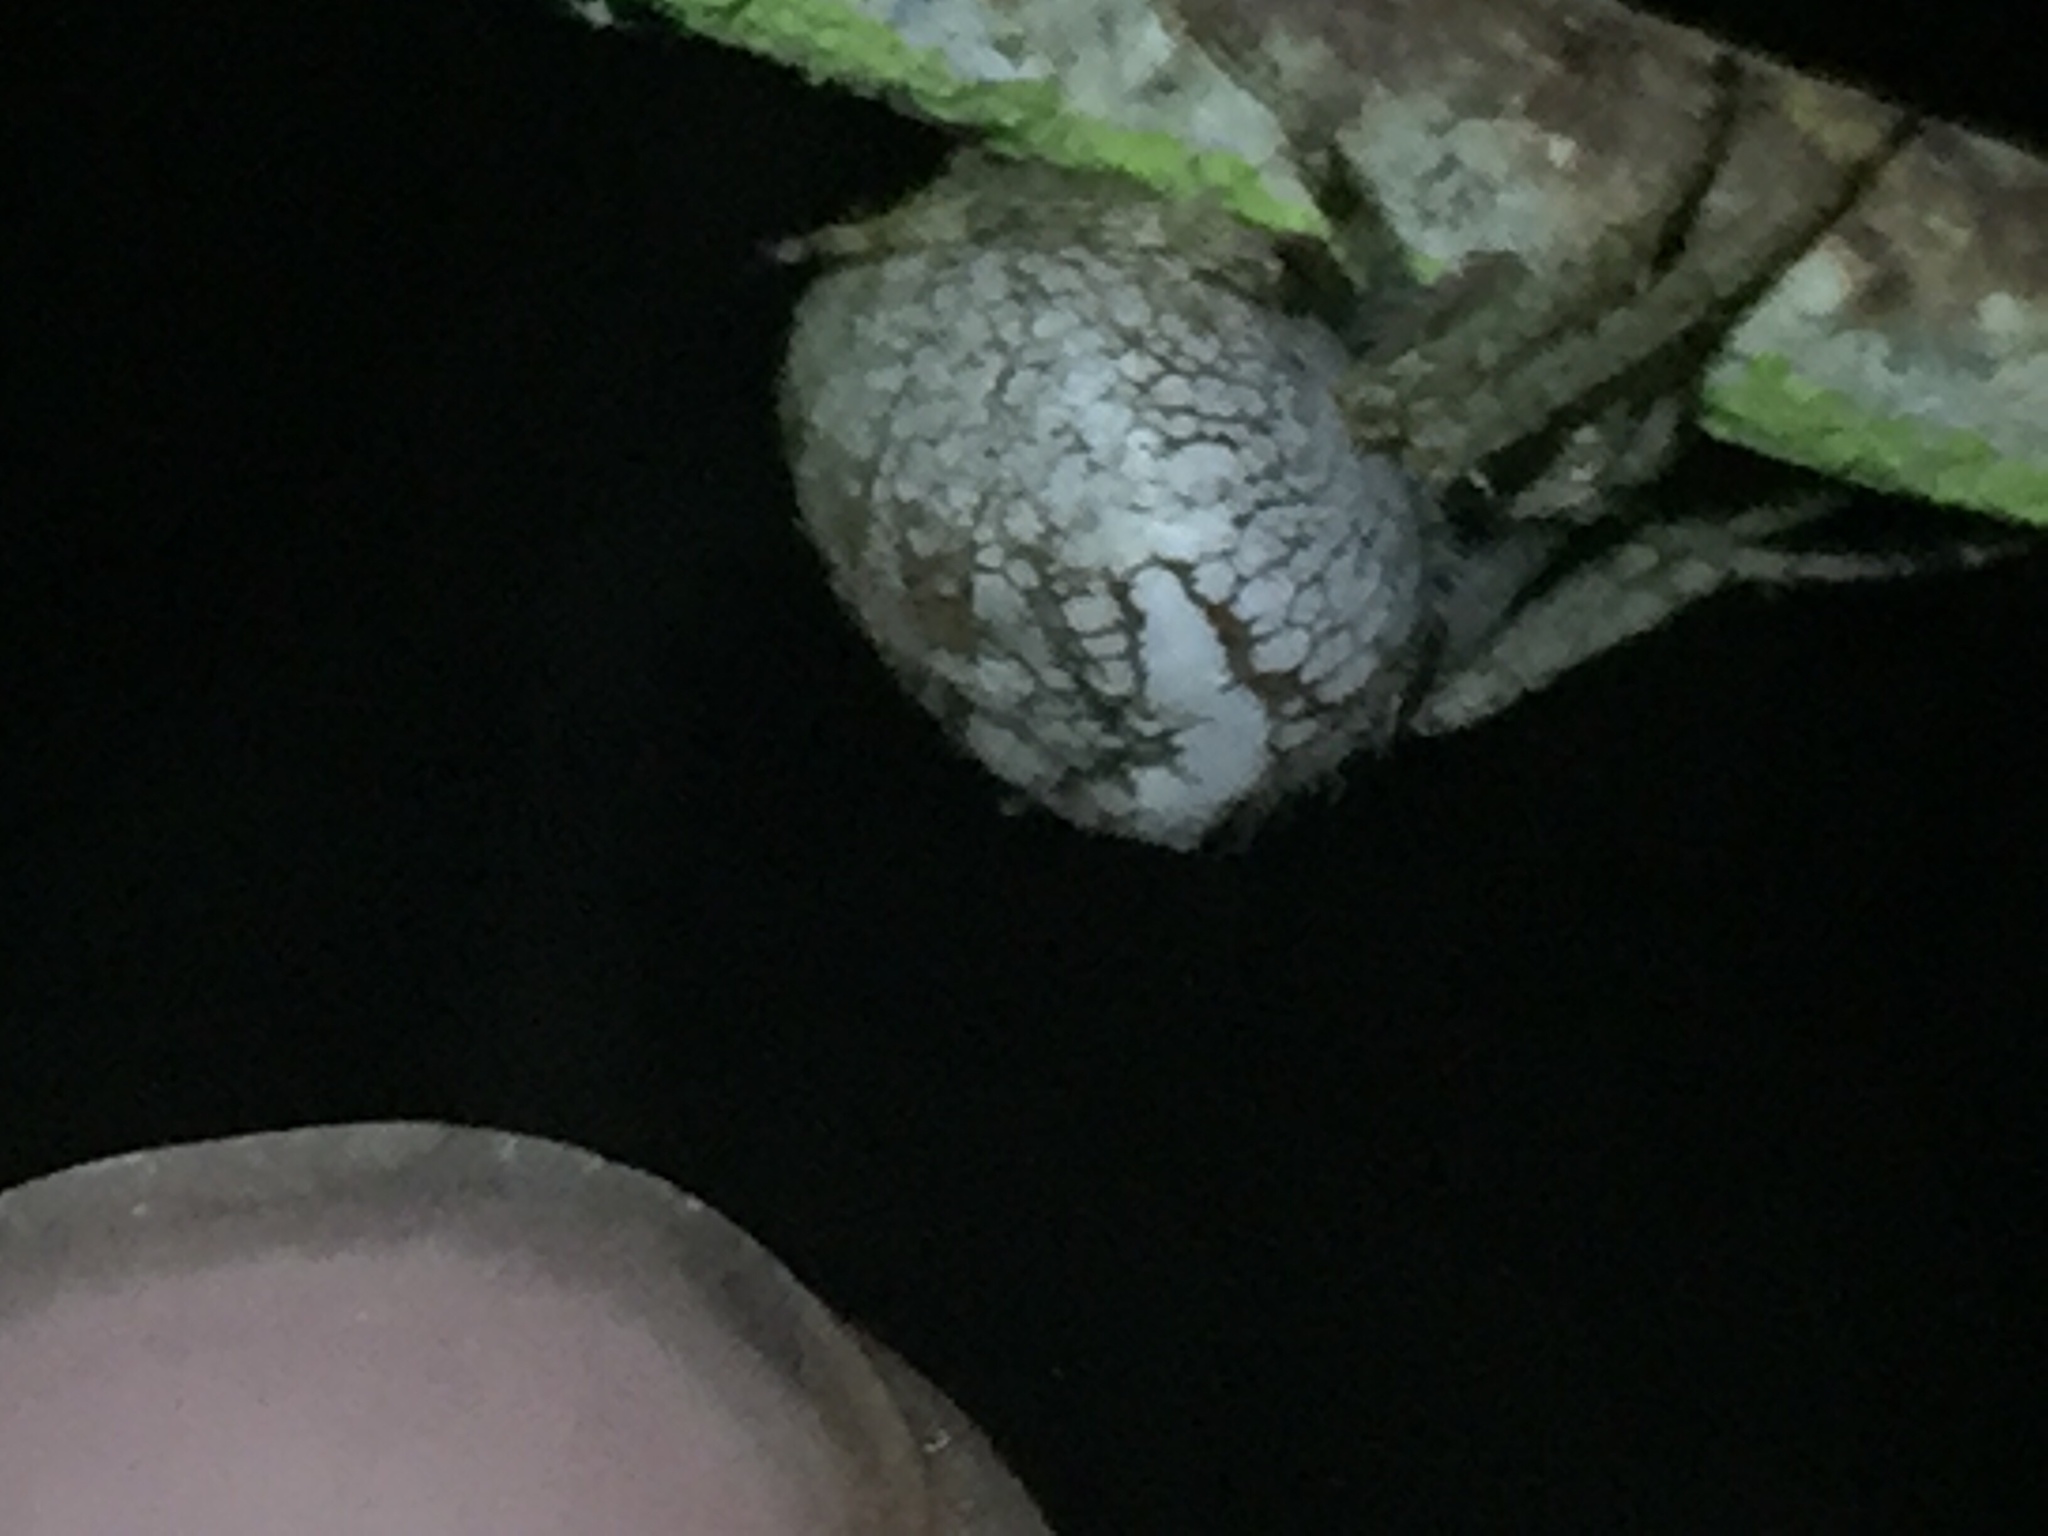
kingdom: Animalia
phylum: Arthropoda
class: Arachnida
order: Araneae
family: Araneidae
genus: Zealaranea
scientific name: Zealaranea crassa
